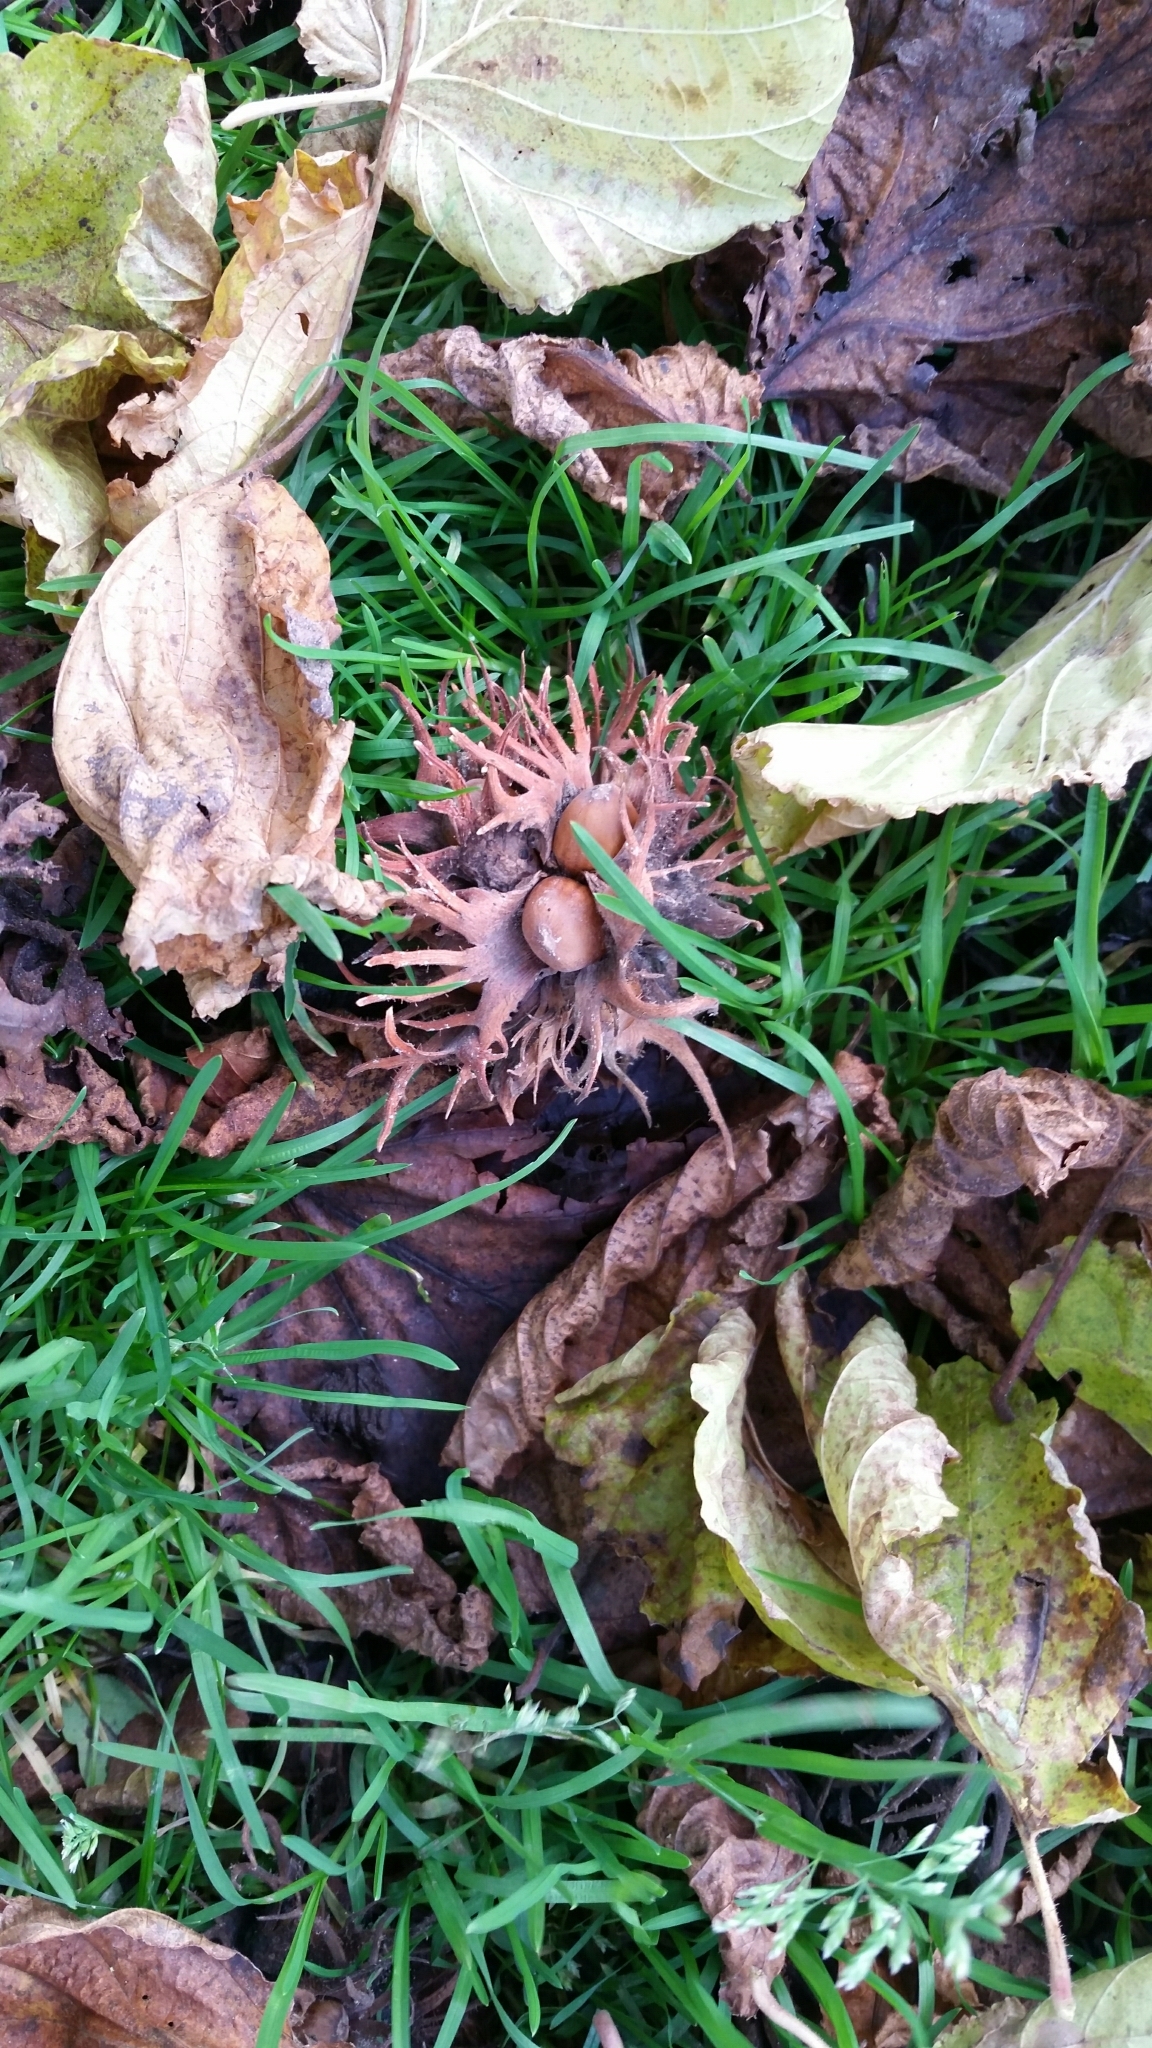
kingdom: Plantae
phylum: Tracheophyta
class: Magnoliopsida
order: Fagales
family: Betulaceae
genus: Corylus
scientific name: Corylus colurna
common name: Turkish hazel
